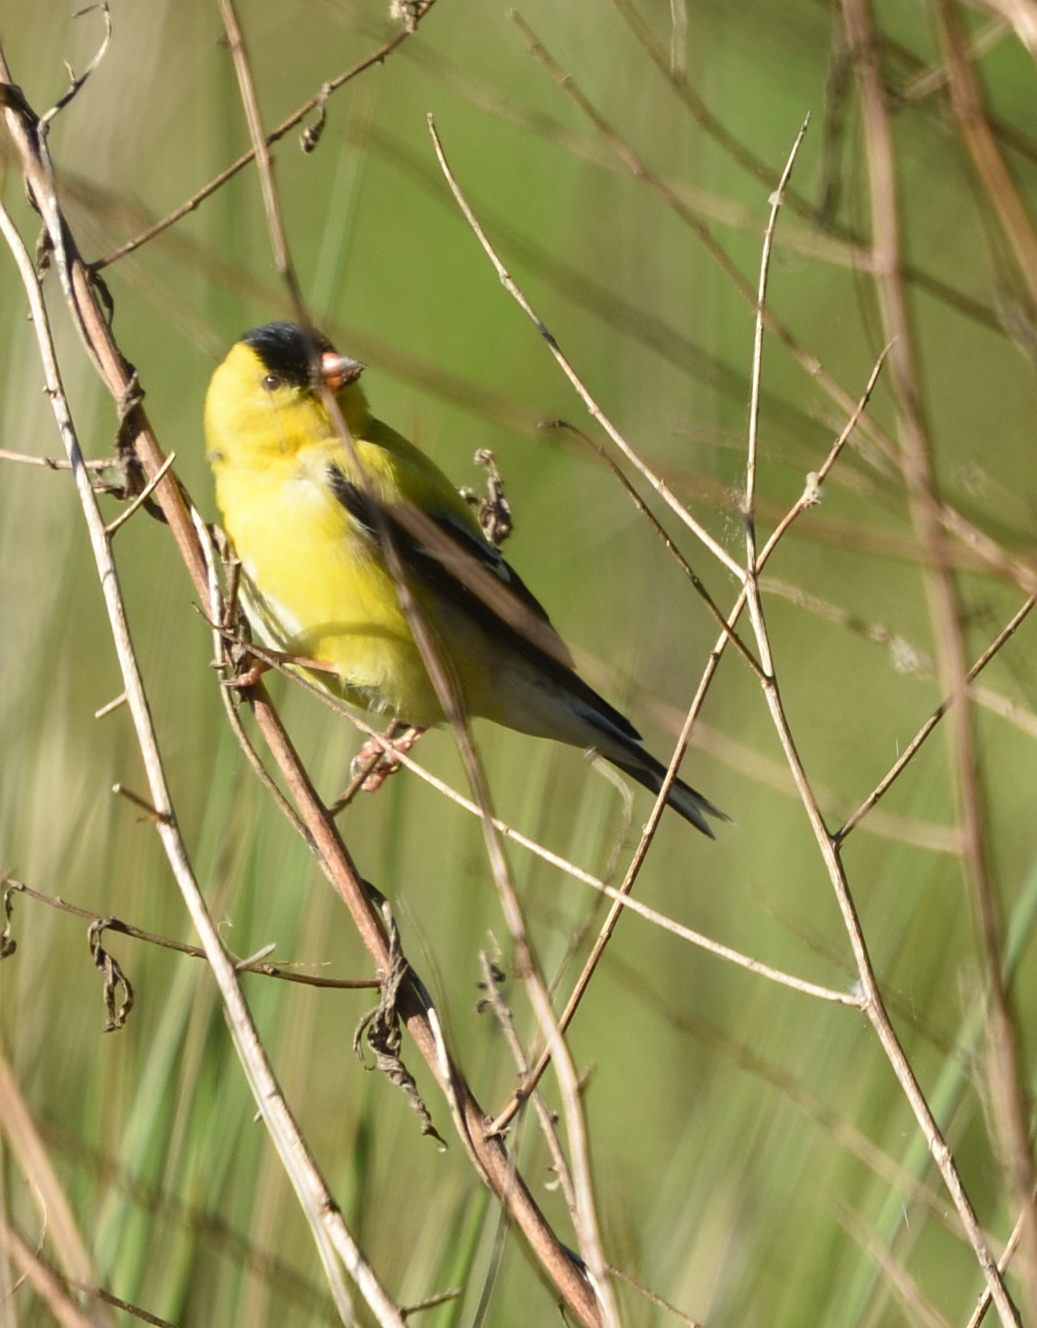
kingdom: Animalia
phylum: Chordata
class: Aves
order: Passeriformes
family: Fringillidae
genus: Spinus
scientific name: Spinus tristis
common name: American goldfinch
